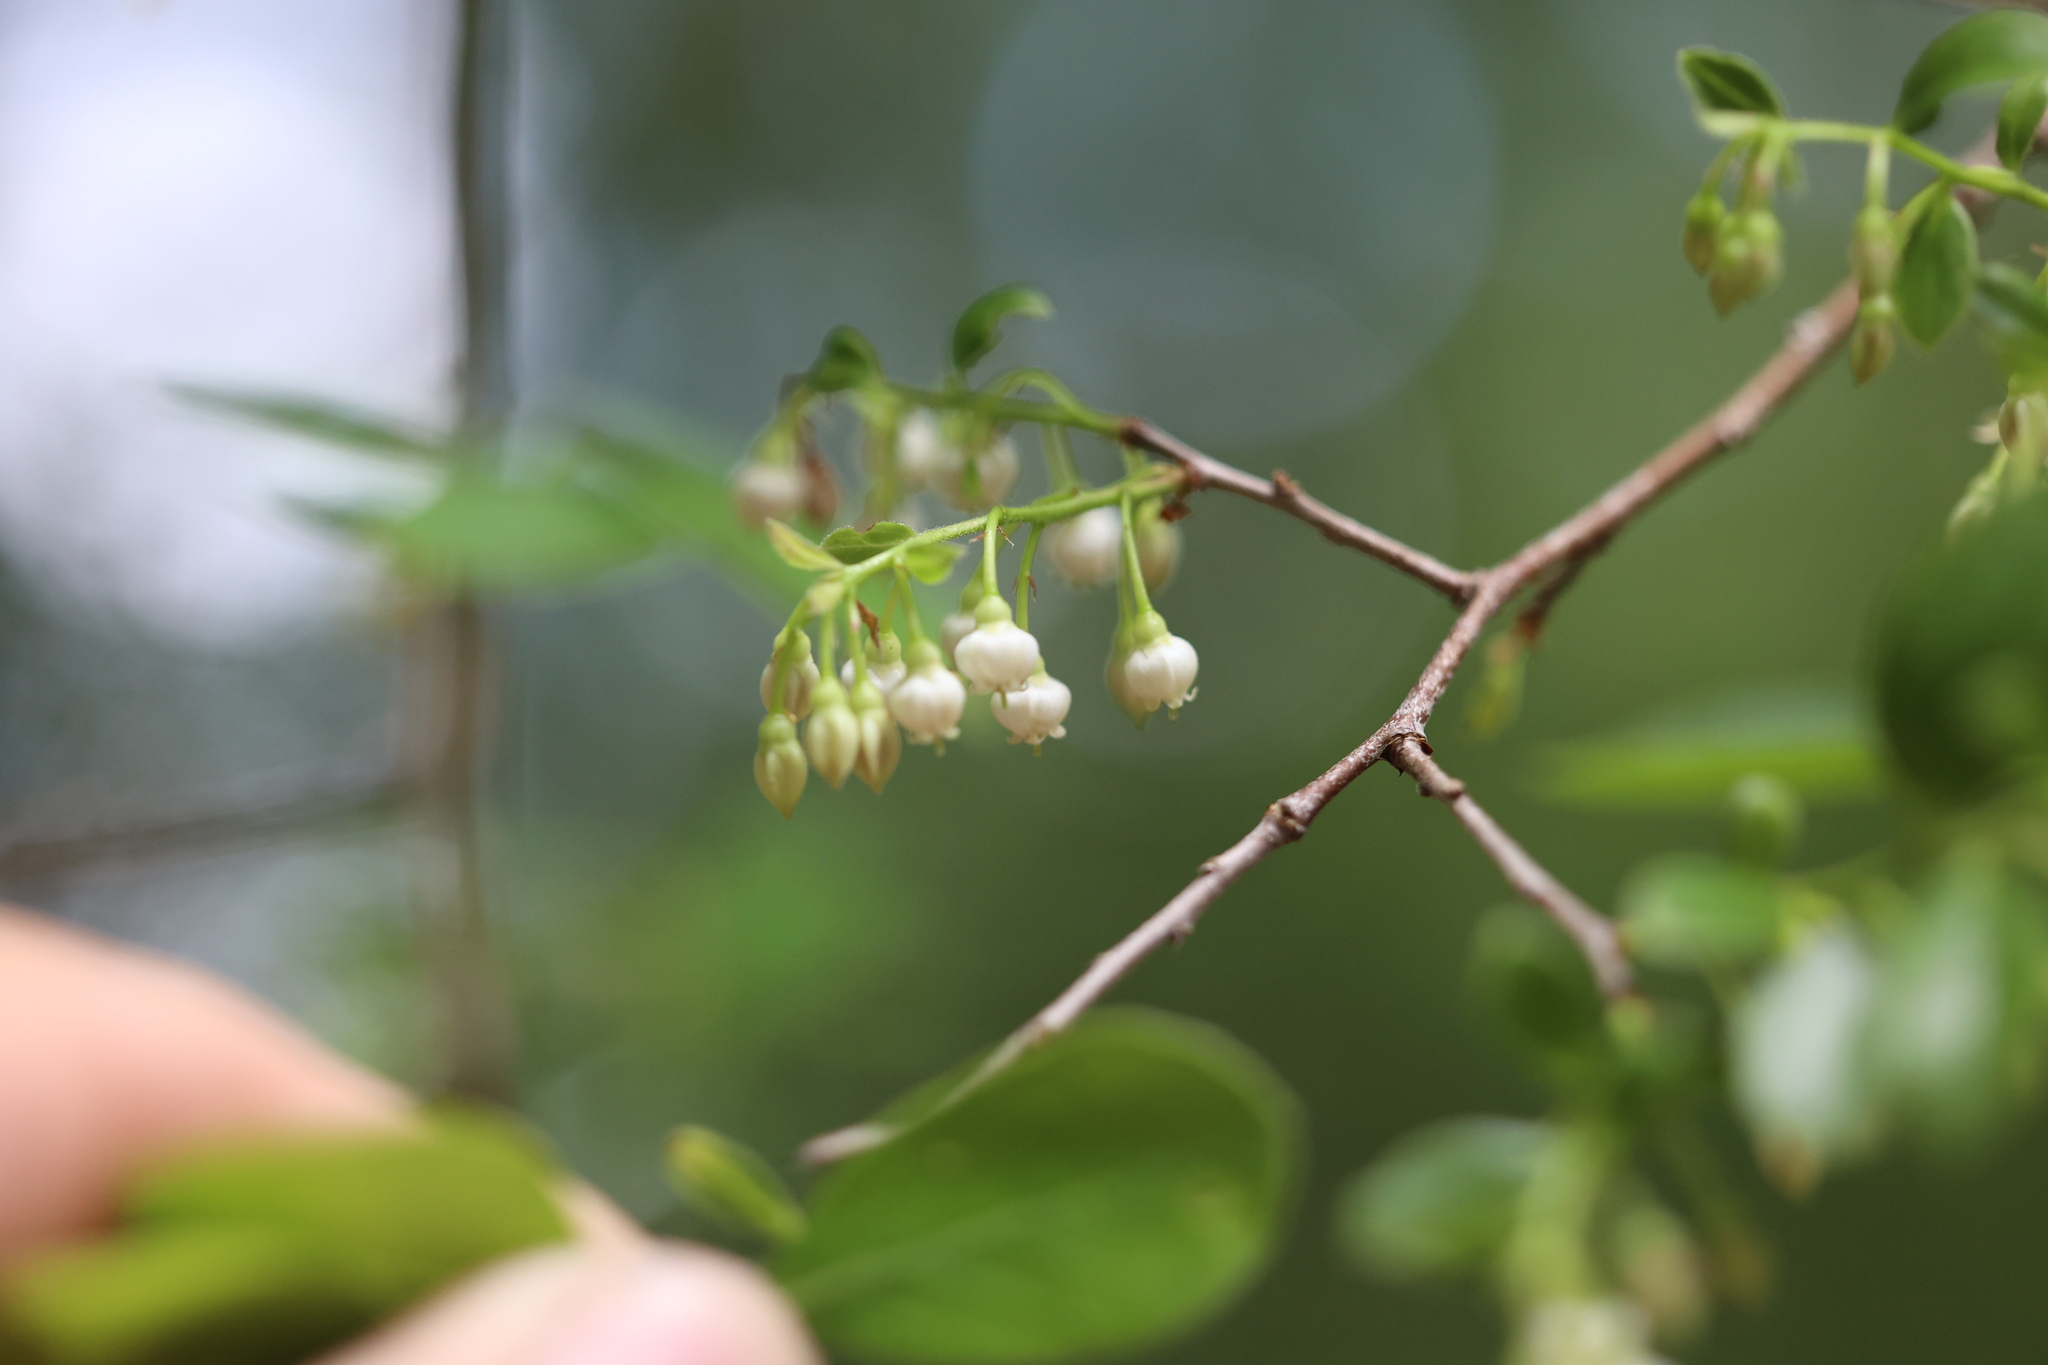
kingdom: Plantae
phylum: Tracheophyta
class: Magnoliopsida
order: Ericales
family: Ericaceae
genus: Vaccinium
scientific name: Vaccinium arboreum
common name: Farkleberry
